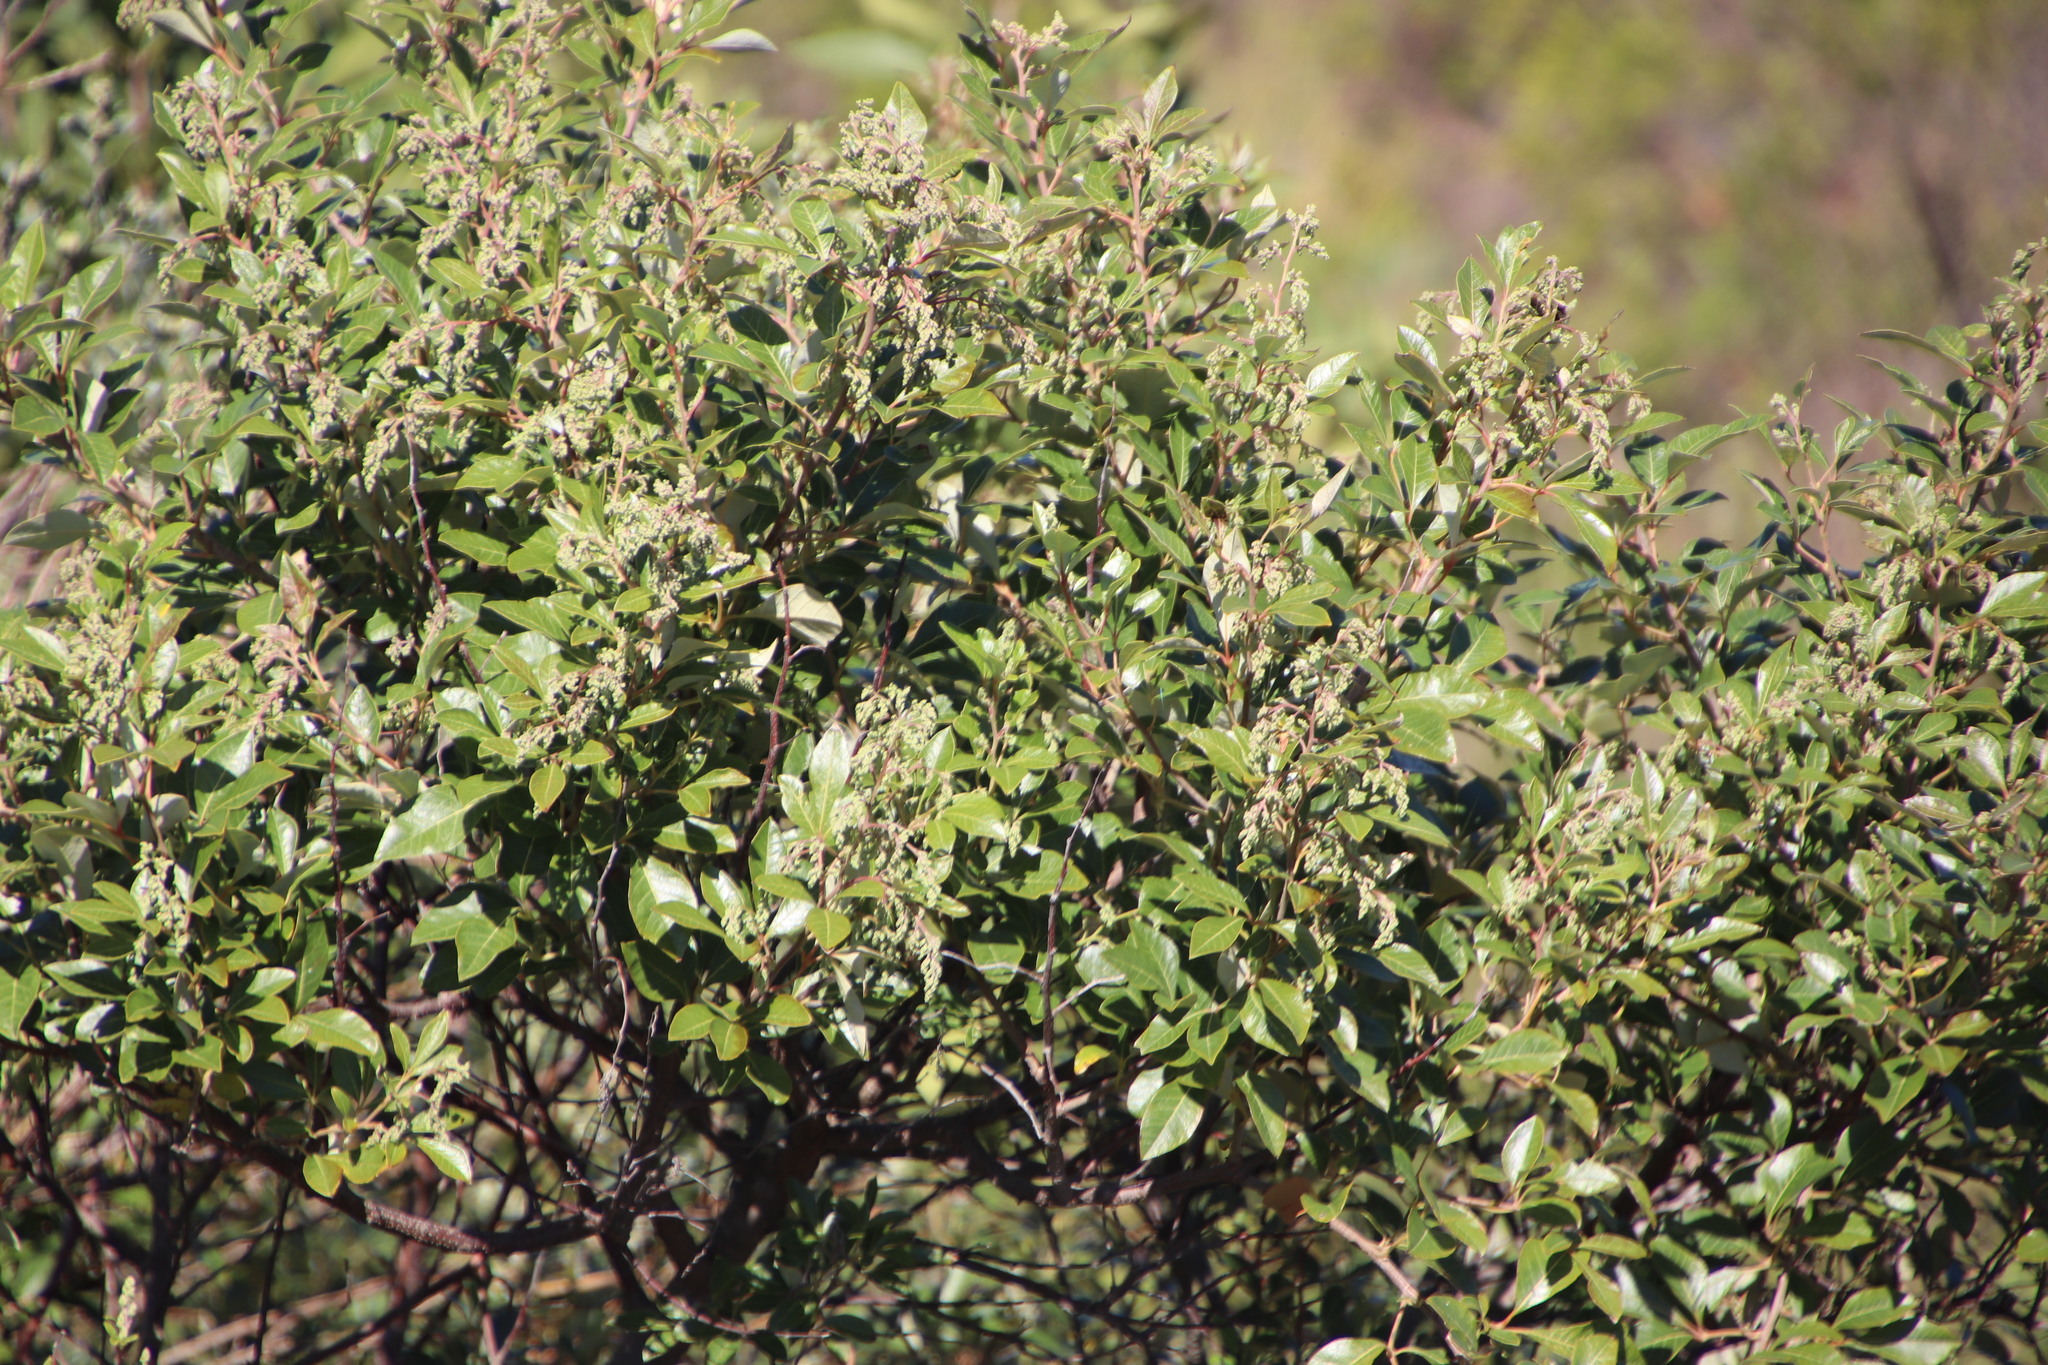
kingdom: Plantae
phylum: Tracheophyta
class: Magnoliopsida
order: Sapindales
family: Anacardiaceae
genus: Searsia
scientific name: Searsia tomentosa
